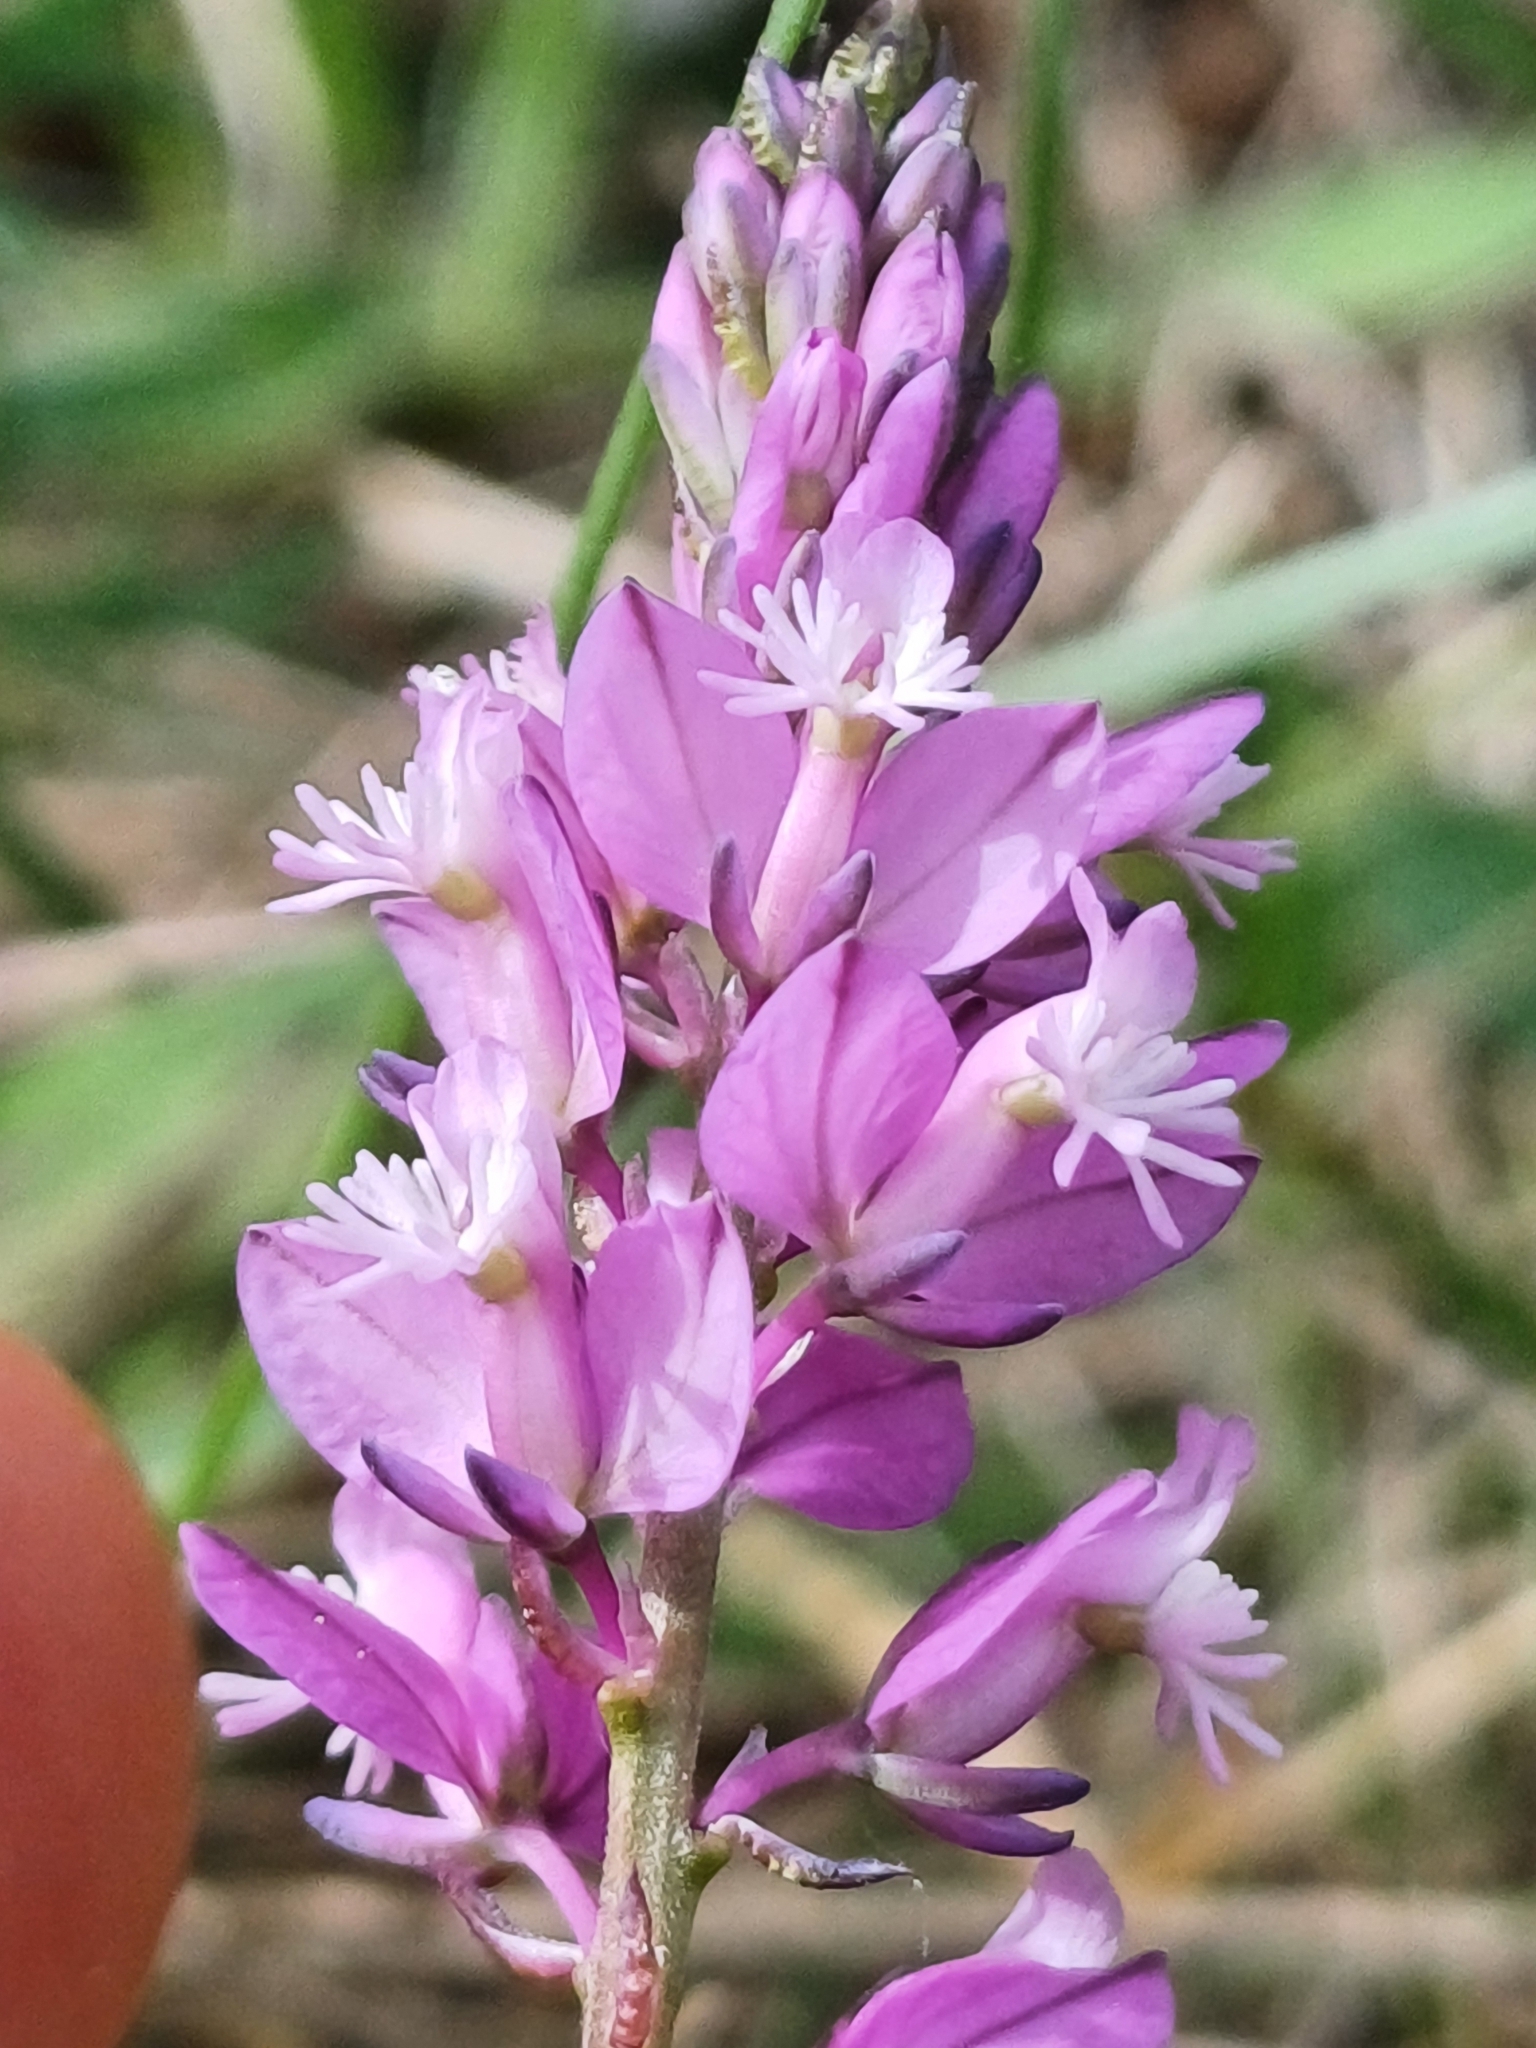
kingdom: Plantae
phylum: Tracheophyta
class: Magnoliopsida
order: Fabales
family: Polygalaceae
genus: Polygala
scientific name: Polygala comosa
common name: Tufted milkwort
